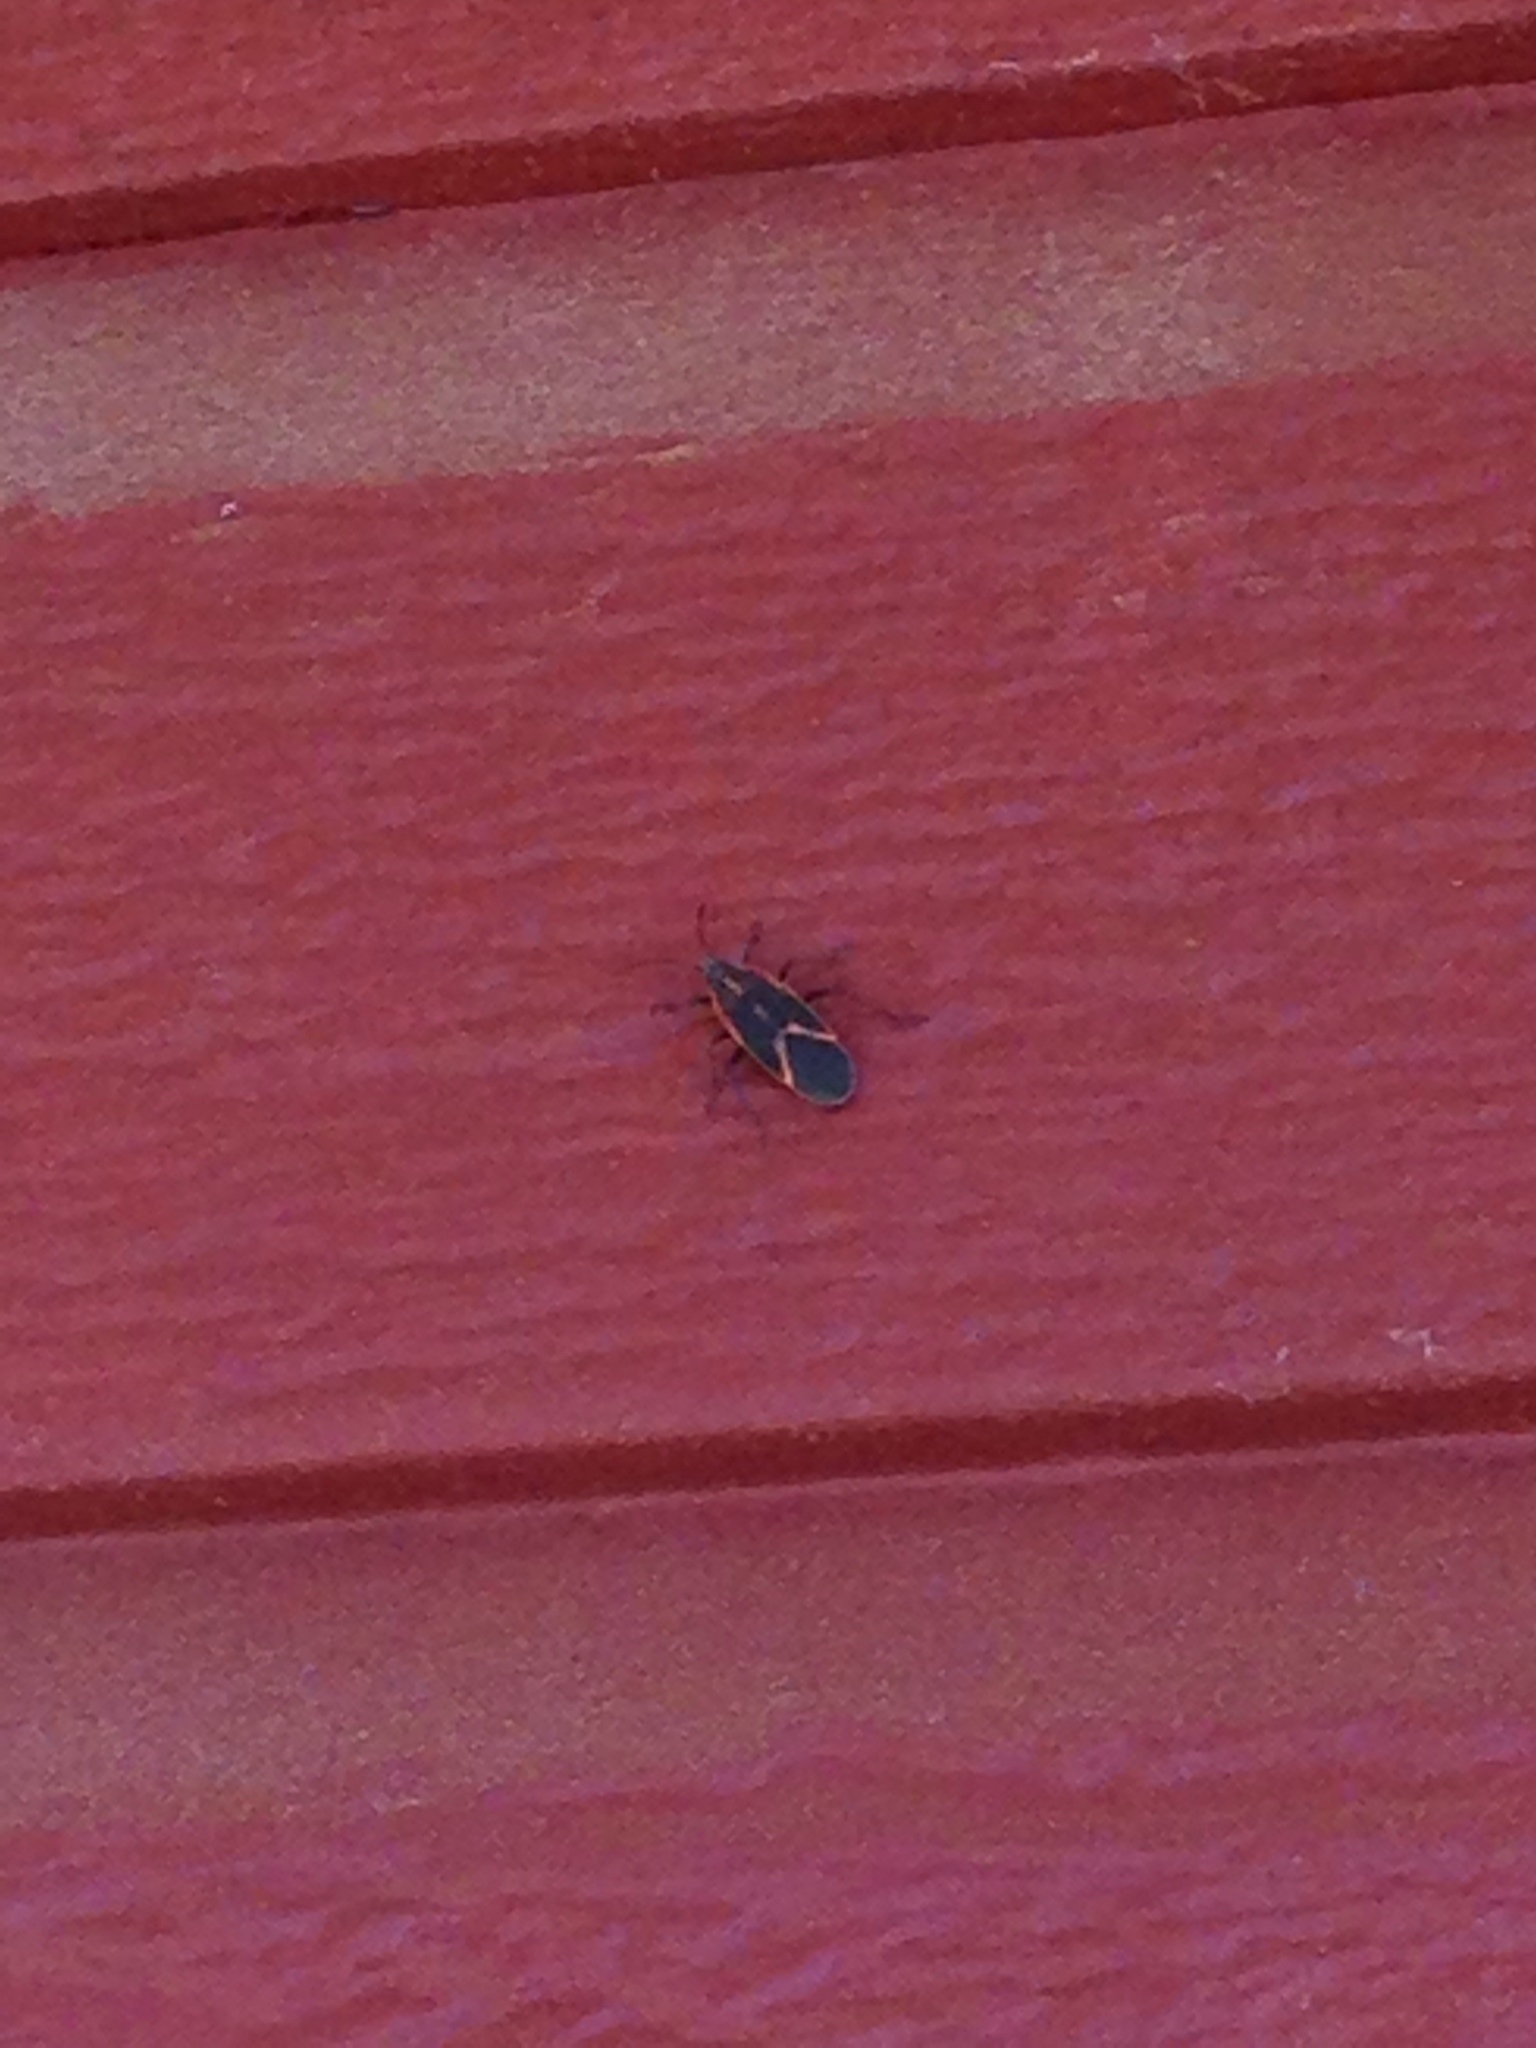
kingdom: Animalia
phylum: Arthropoda
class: Insecta
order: Hemiptera
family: Rhopalidae
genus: Boisea
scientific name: Boisea trivittata
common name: Boxelder bug
